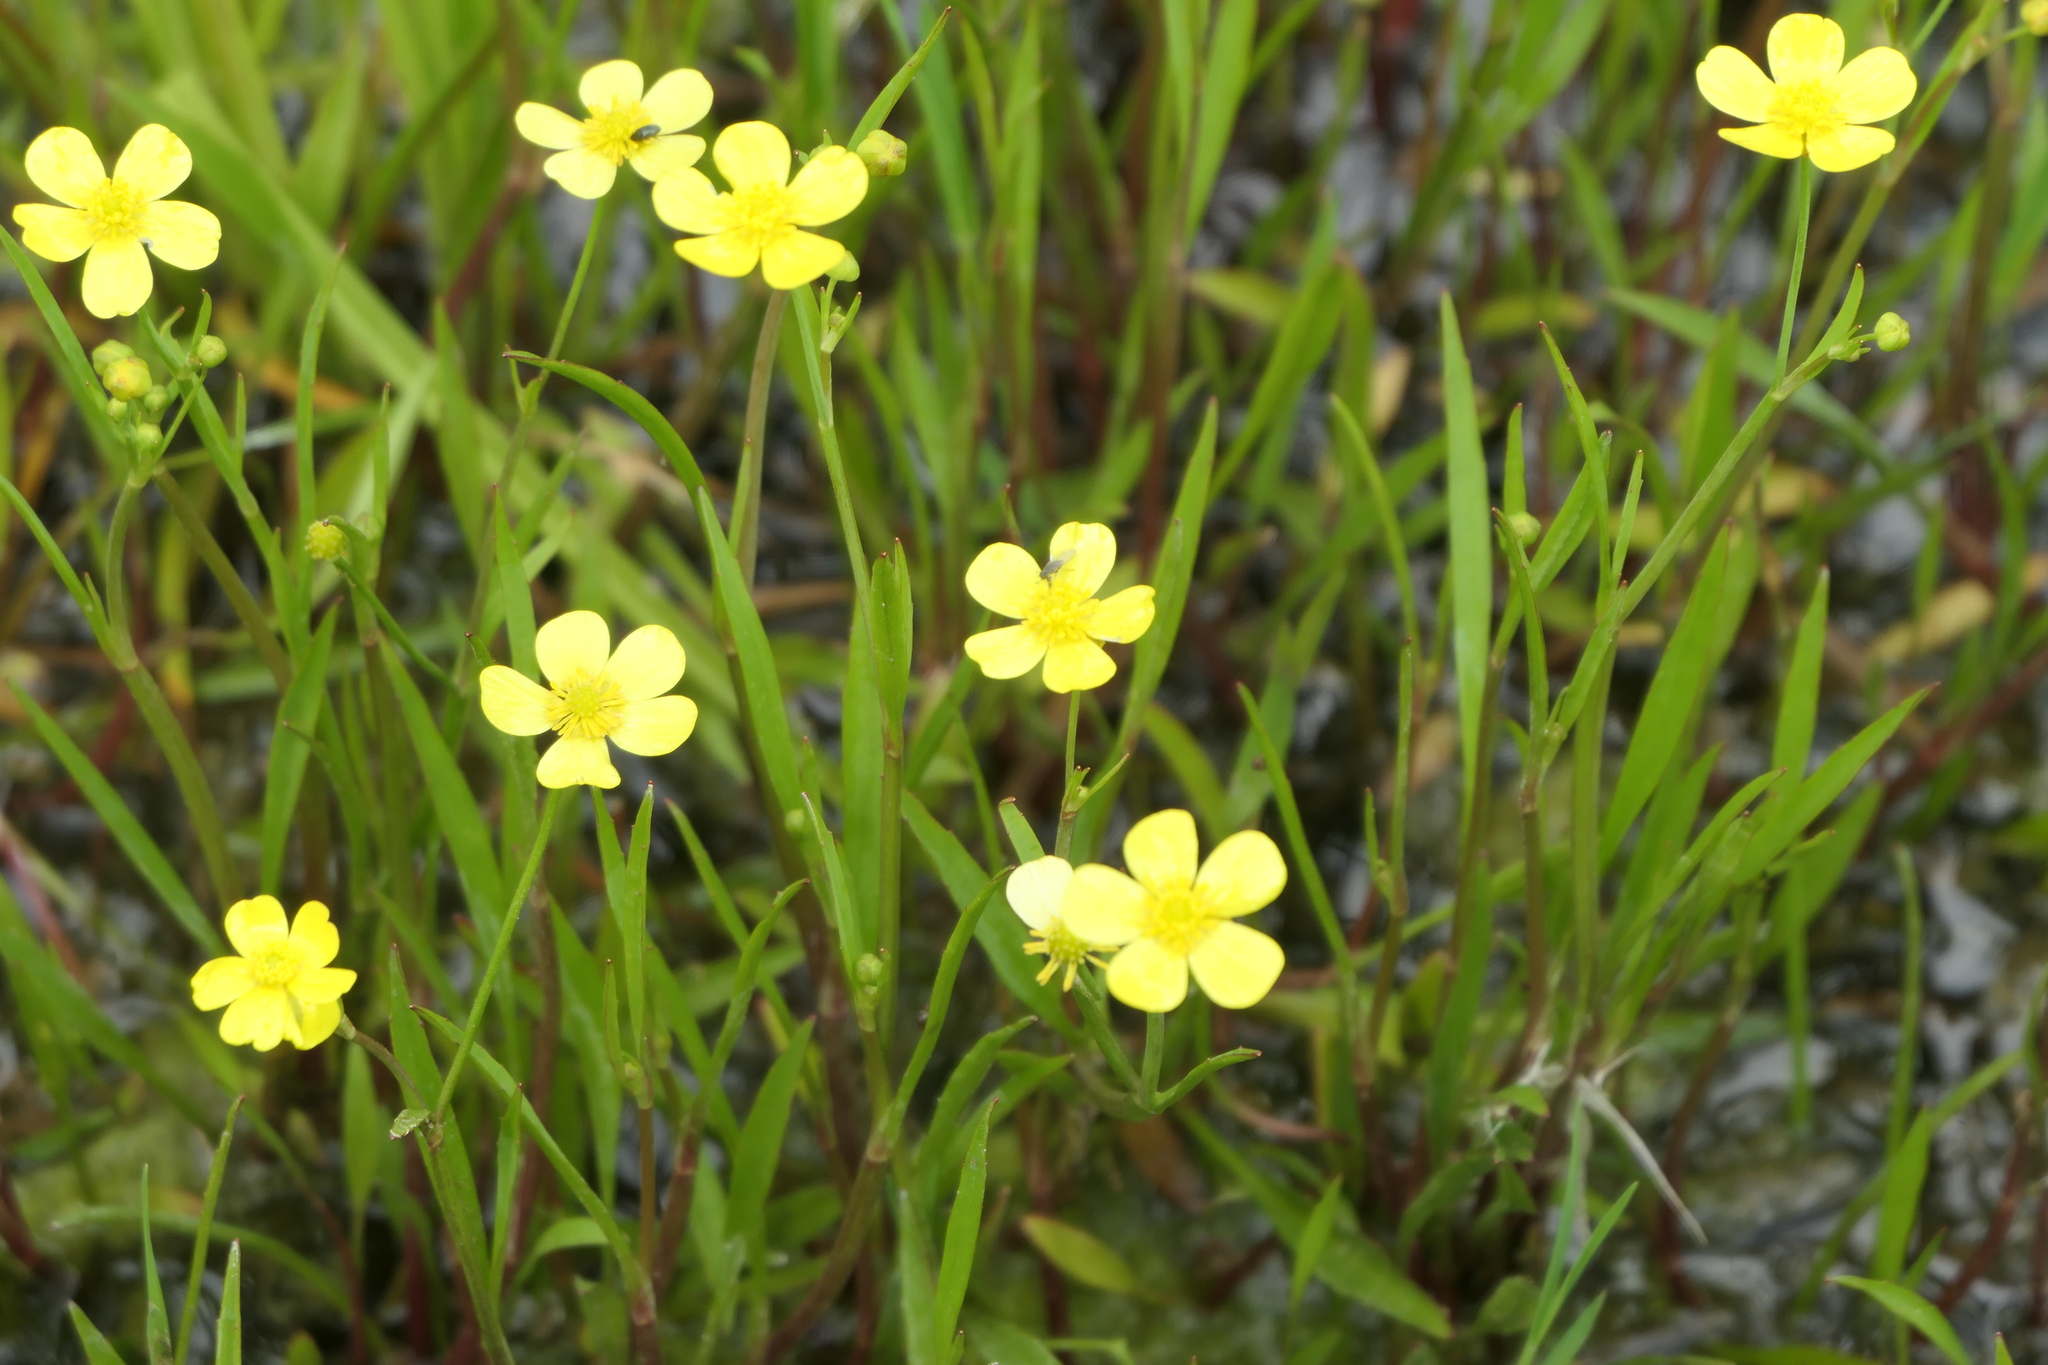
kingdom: Plantae
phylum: Tracheophyta
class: Magnoliopsida
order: Ranunculales
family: Ranunculaceae
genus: Ranunculus
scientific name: Ranunculus flammula
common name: Lesser spearwort
